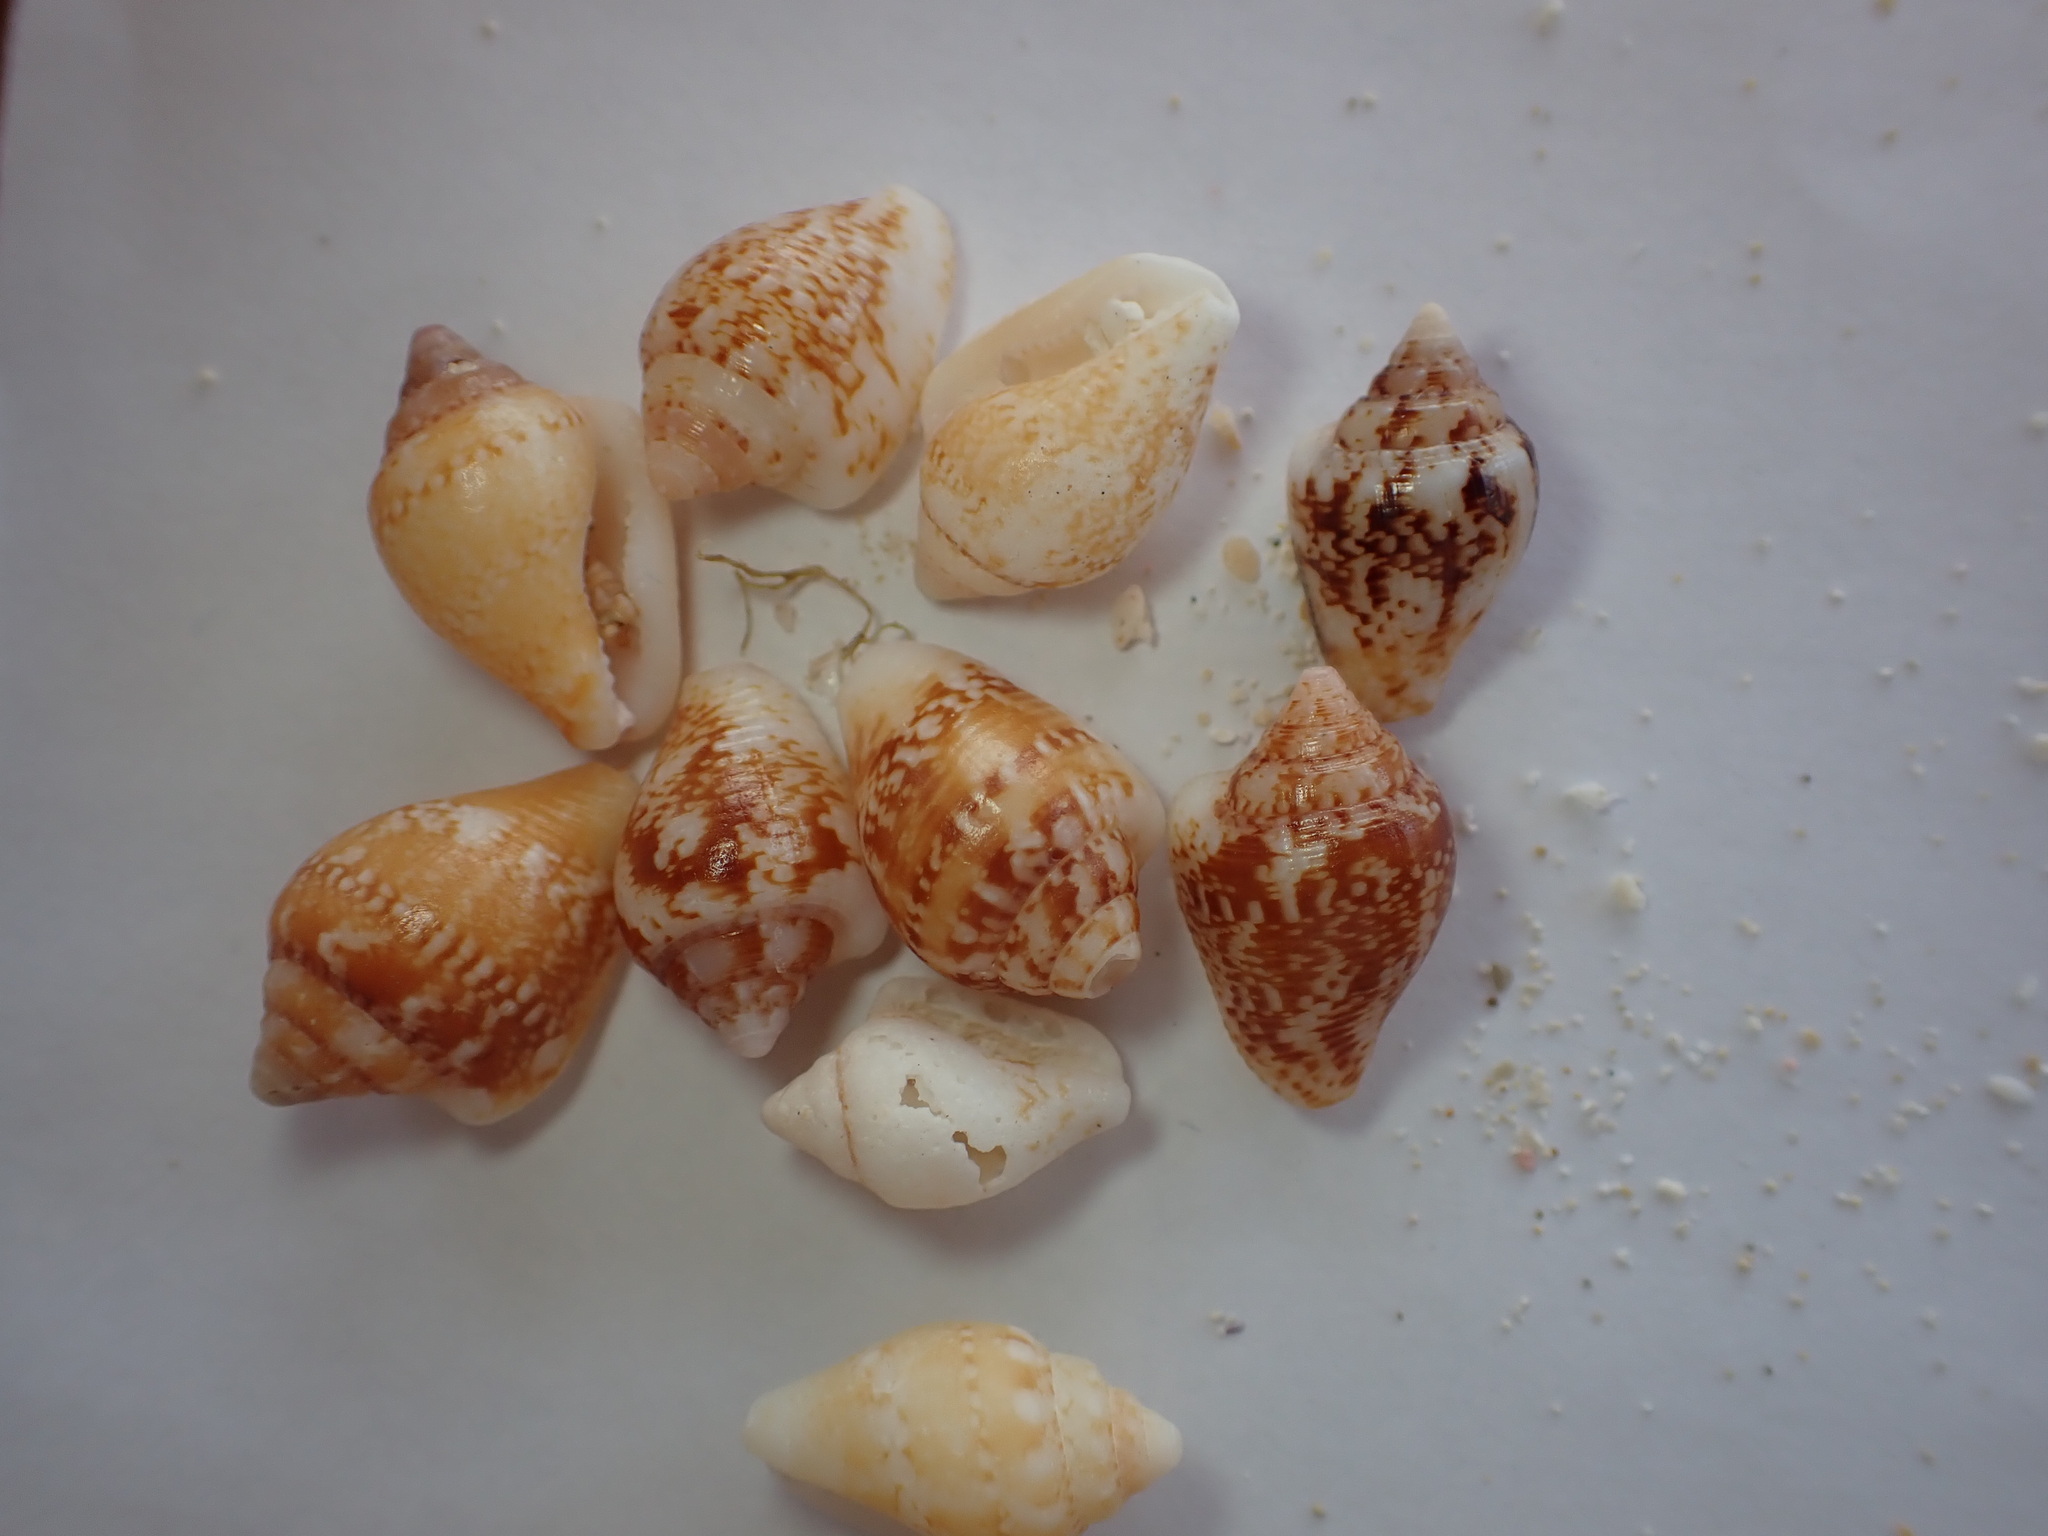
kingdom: Animalia
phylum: Mollusca
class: Gastropoda
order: Neogastropoda
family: Columbellidae
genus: Columbella
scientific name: Columbella adansoni
